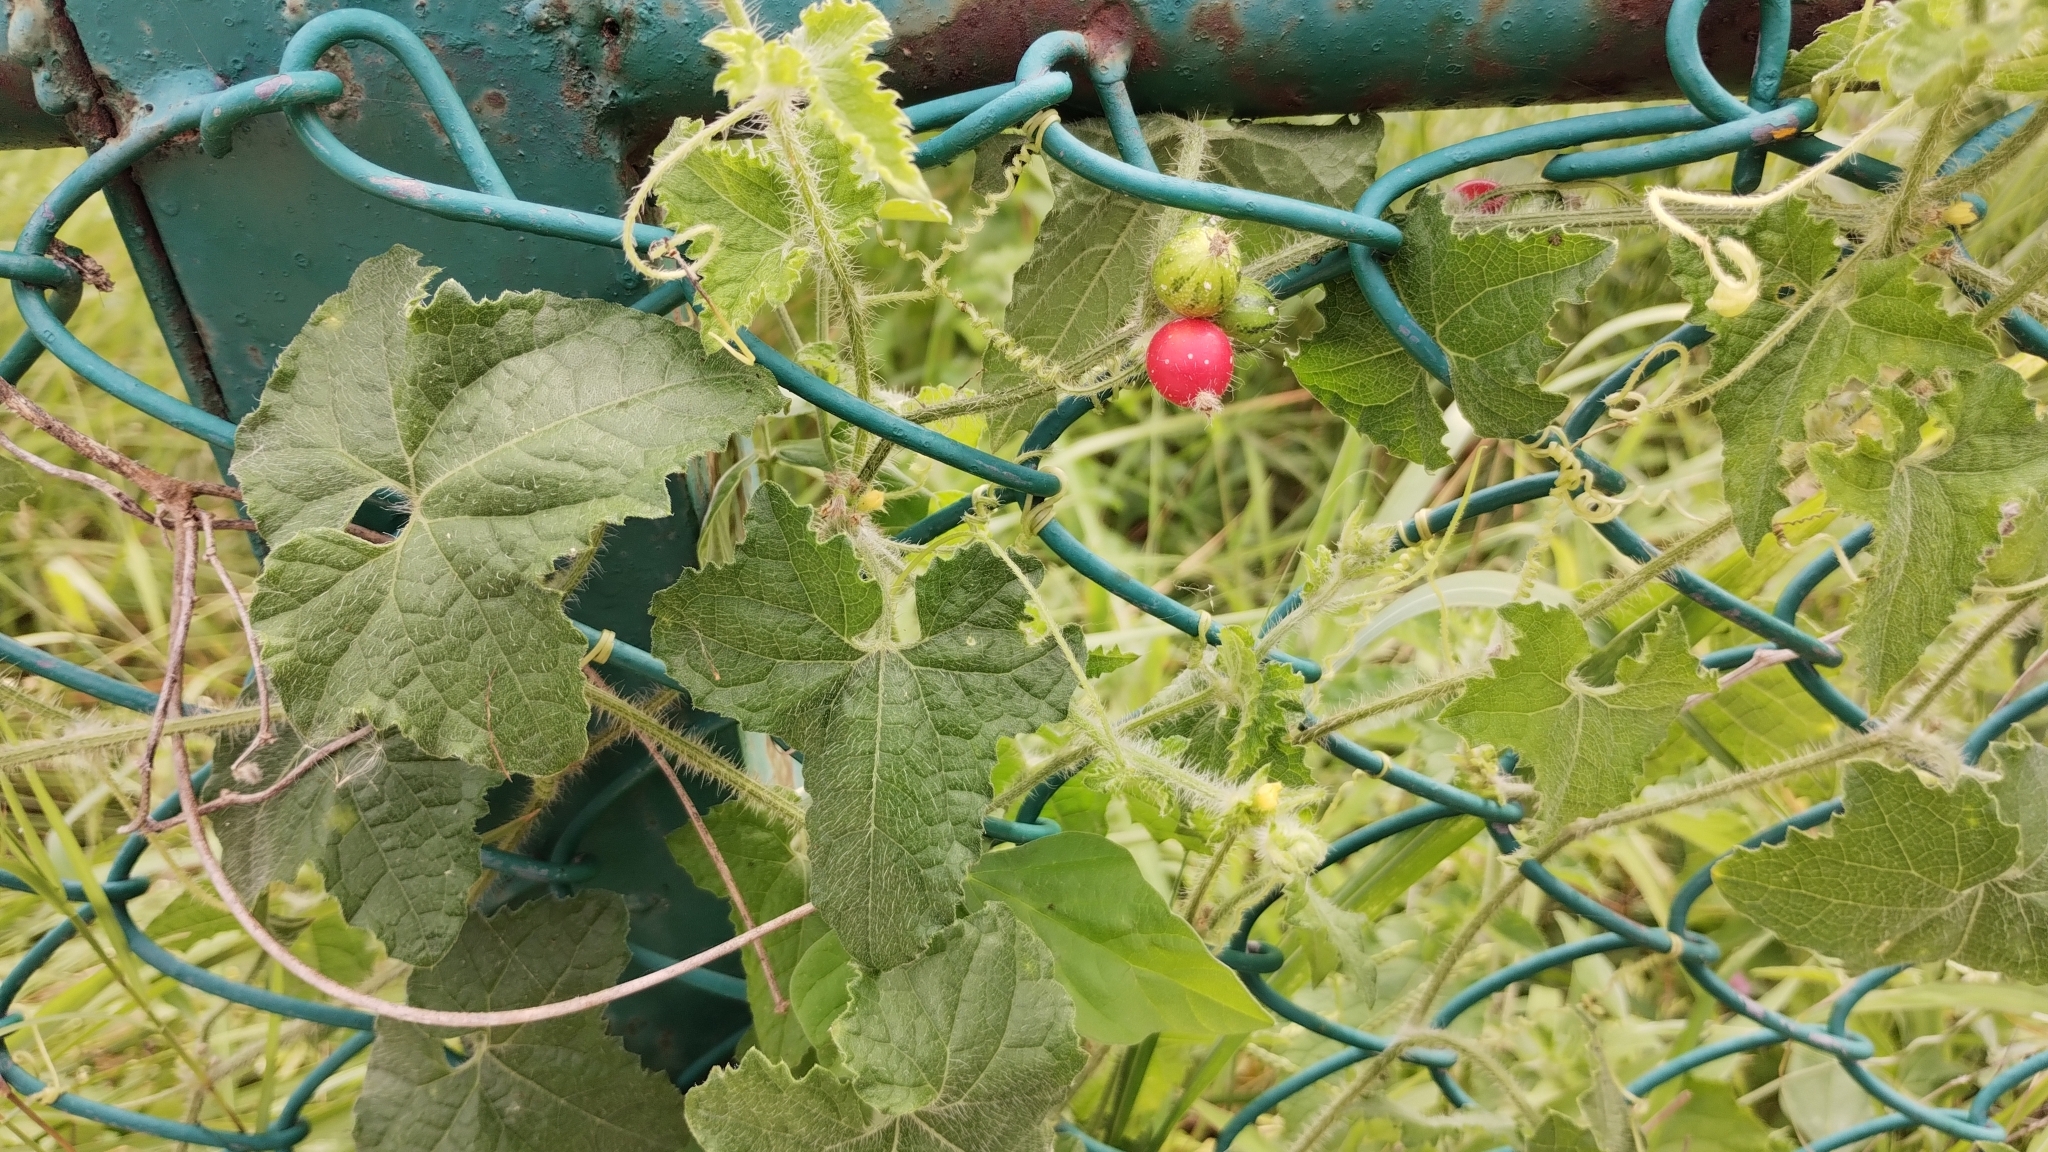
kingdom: Plantae
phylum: Tracheophyta
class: Magnoliopsida
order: Cucurbitales
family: Cucurbitaceae
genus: Cucumis
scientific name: Cucumis maderaspatanus
